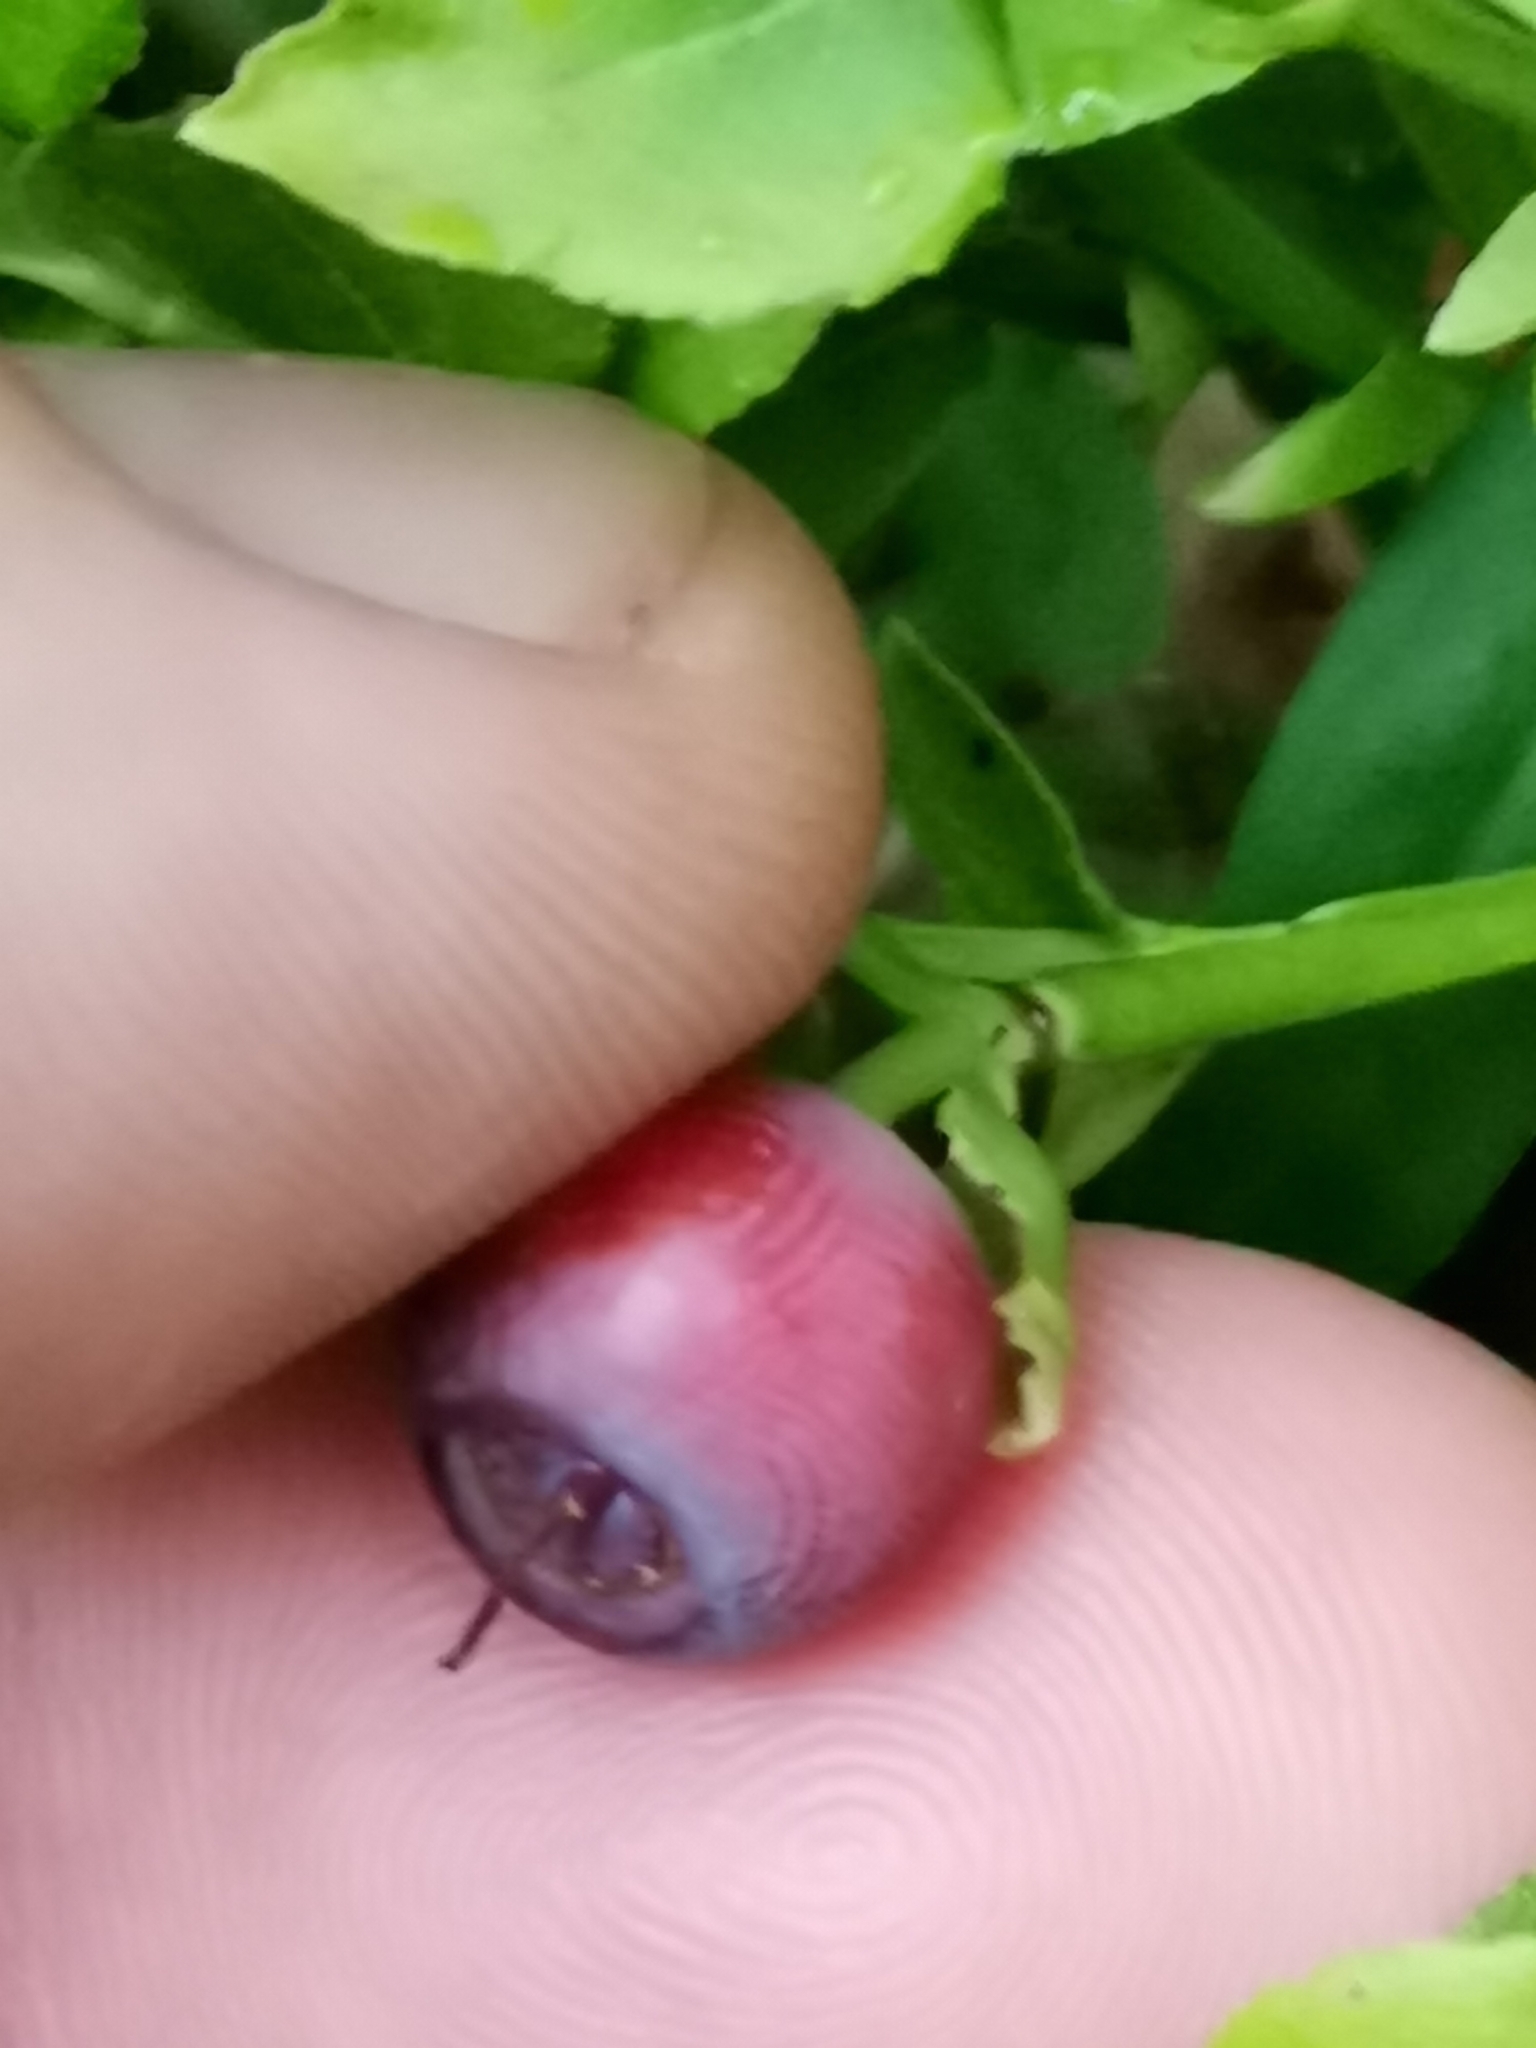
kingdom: Plantae
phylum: Tracheophyta
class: Magnoliopsida
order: Ericales
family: Ericaceae
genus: Vaccinium
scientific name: Vaccinium myrtillus
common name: Bilberry
